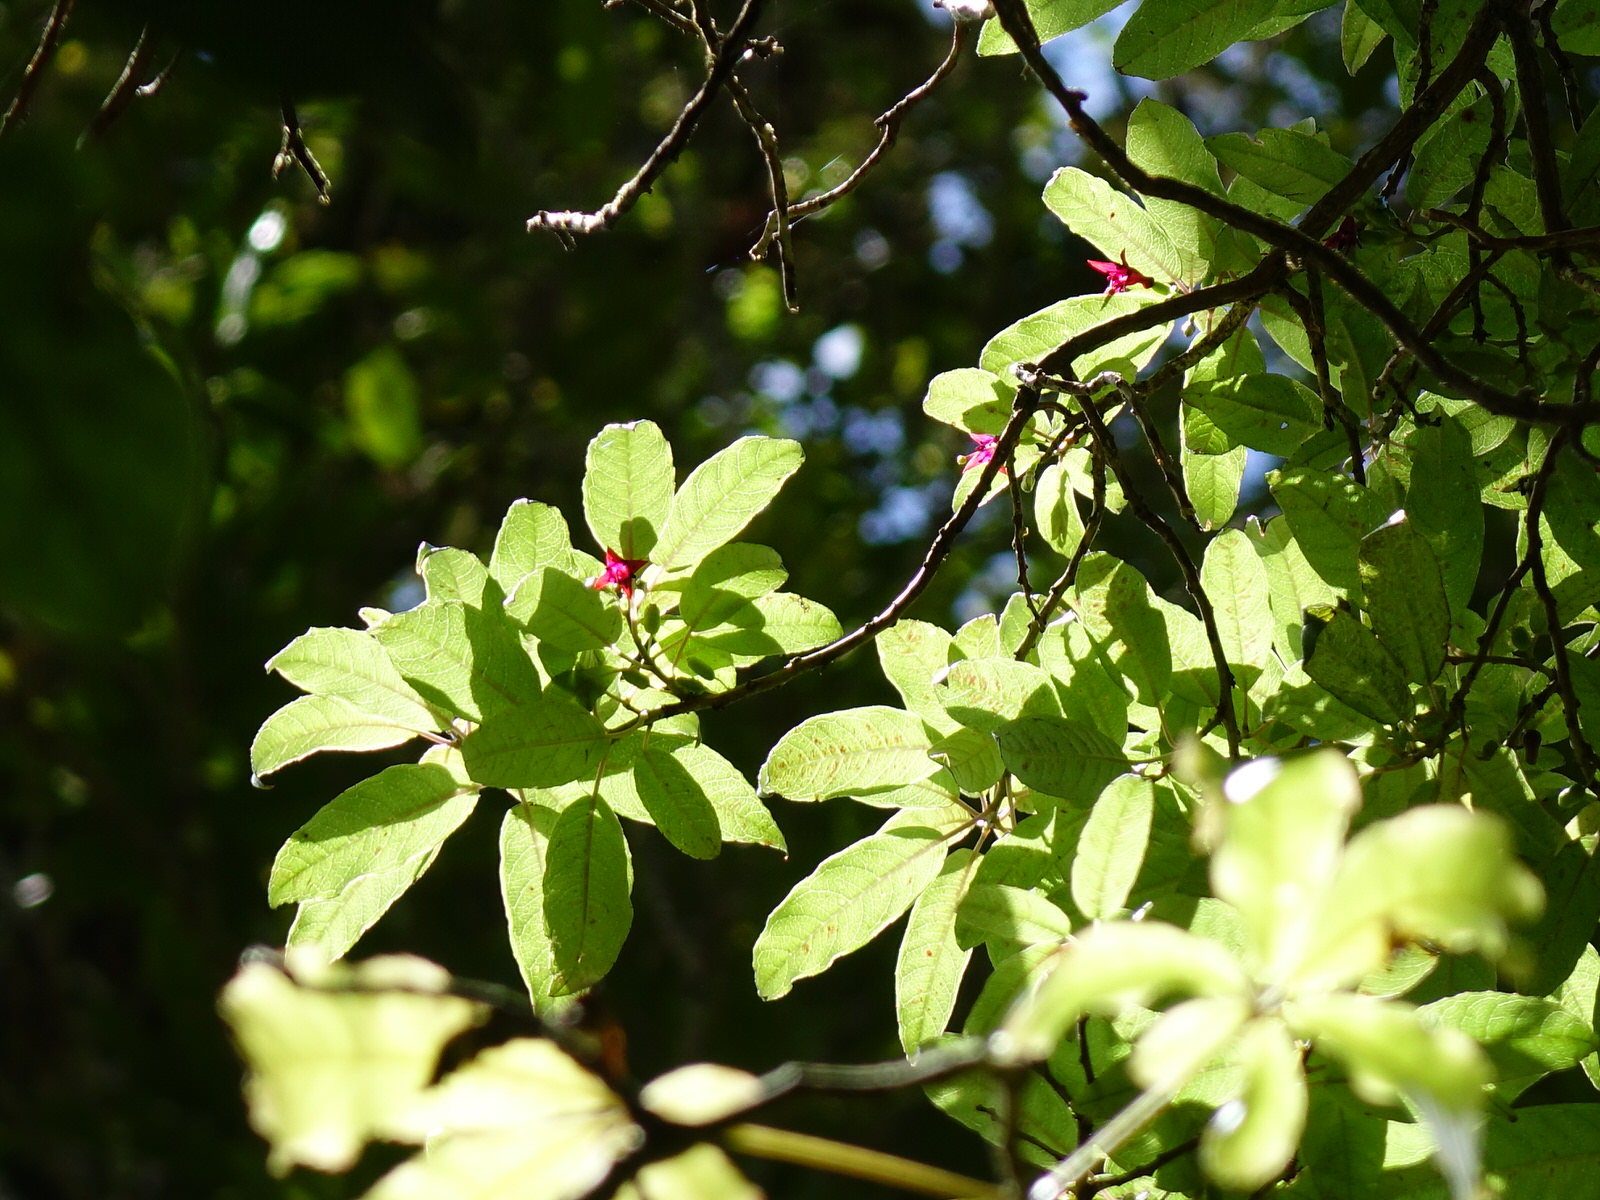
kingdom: Plantae
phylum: Tracheophyta
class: Magnoliopsida
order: Myrtales
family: Onagraceae
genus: Fuchsia
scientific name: Fuchsia excorticata
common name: Tree fuchsia
